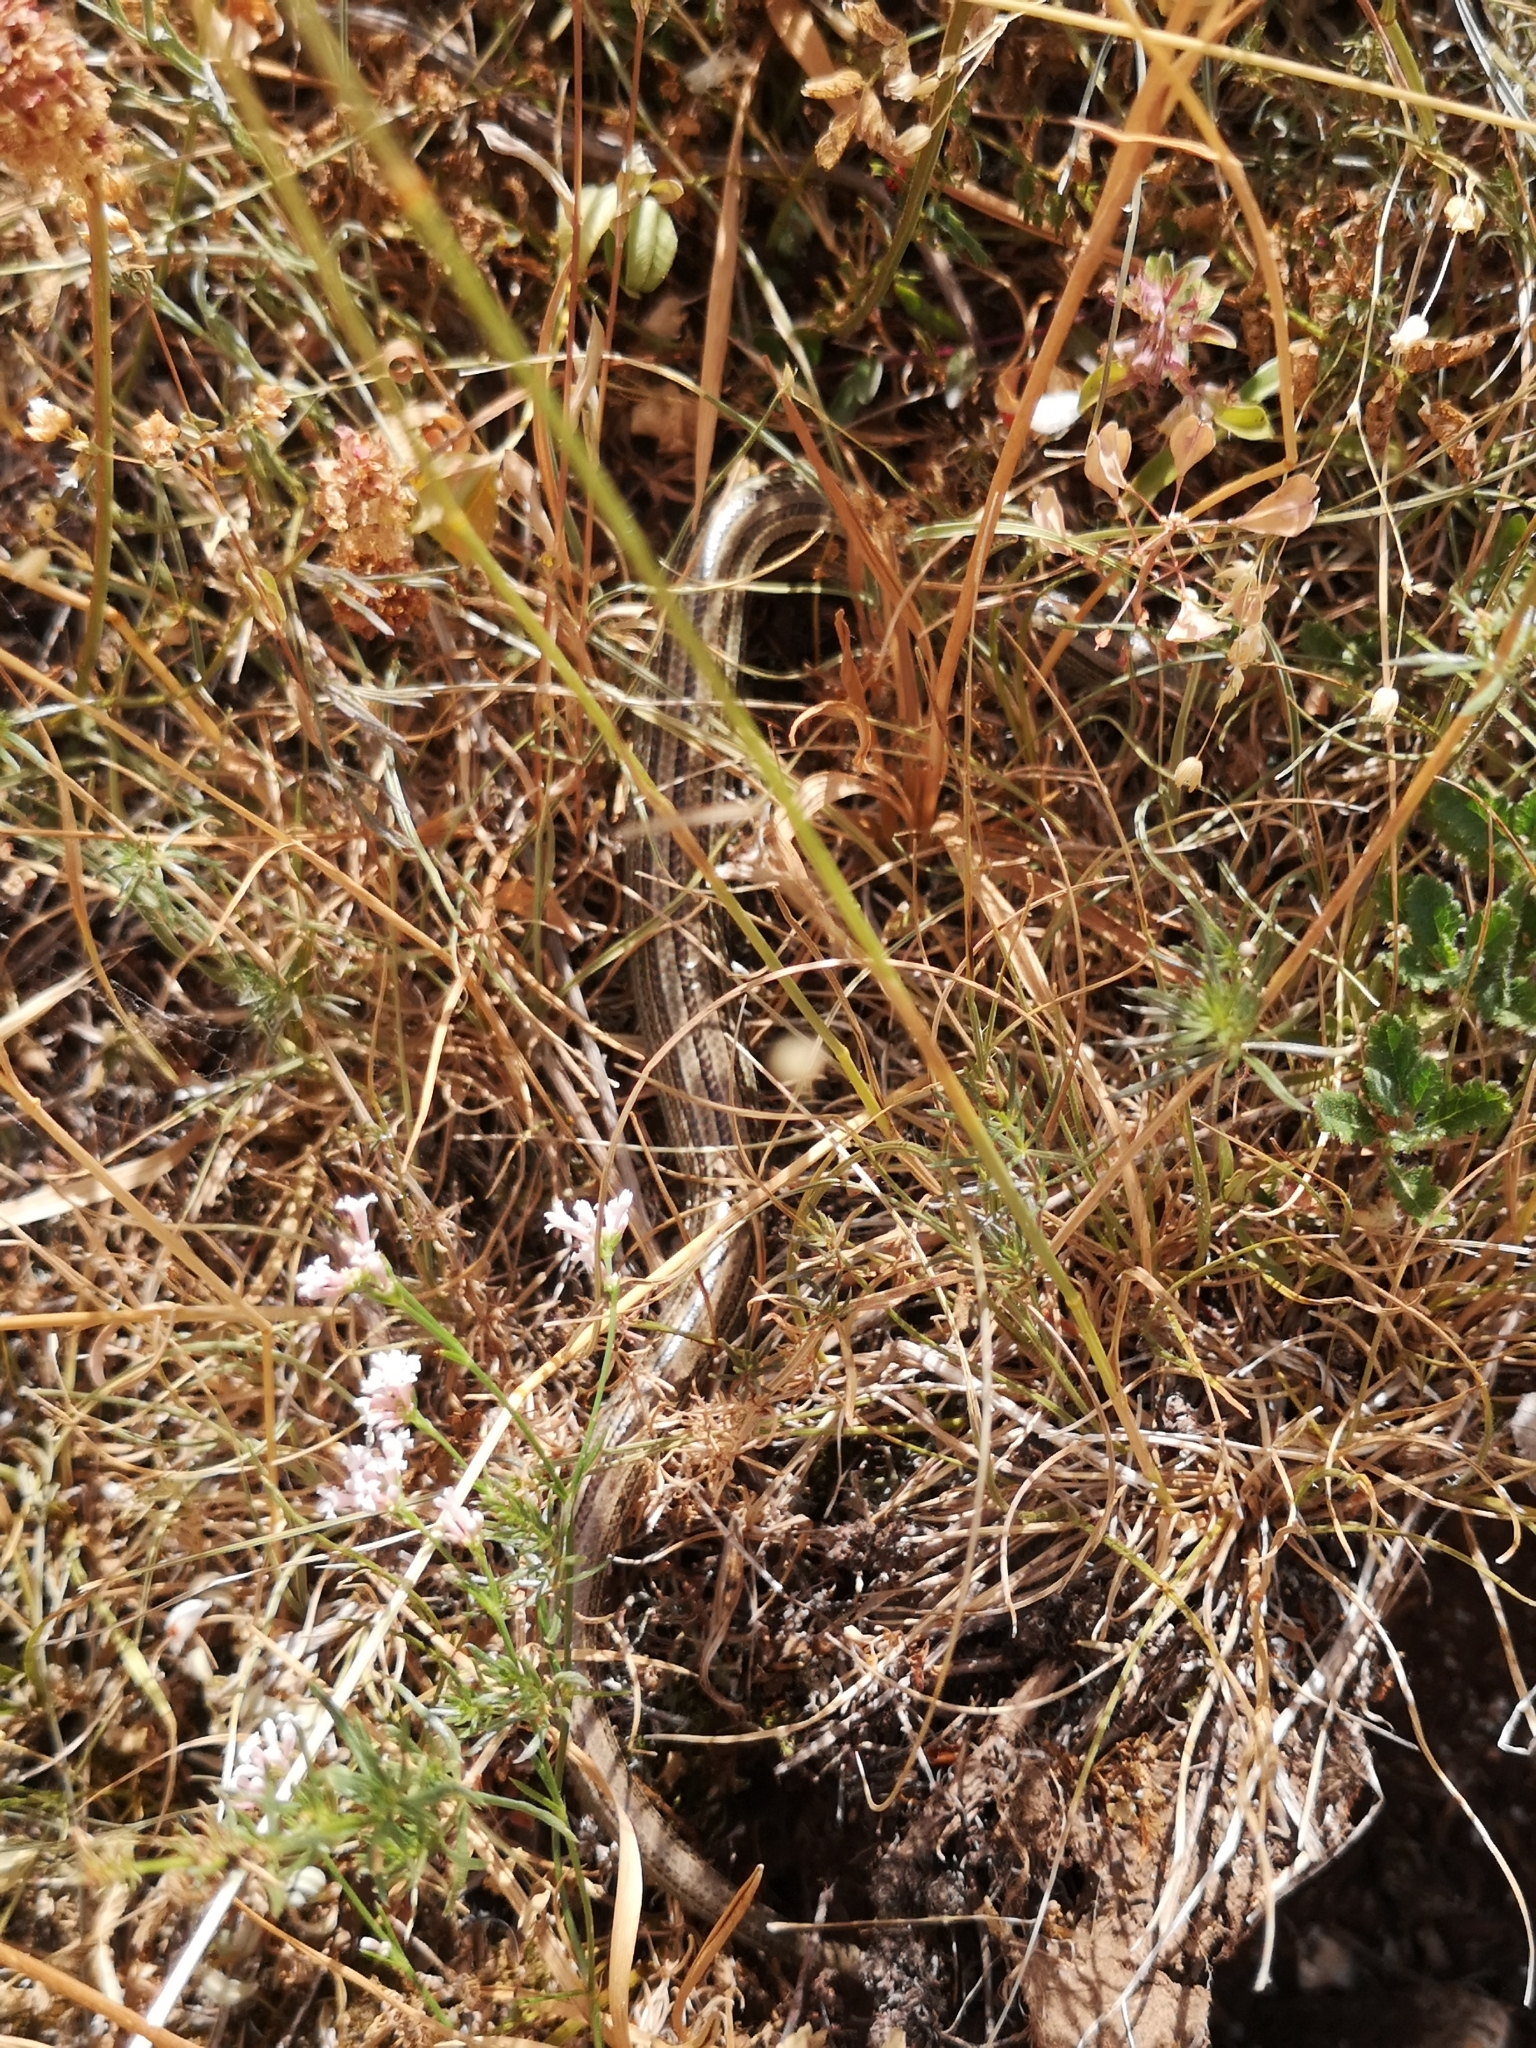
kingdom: Animalia
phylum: Chordata
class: Squamata
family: Scincidae
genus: Chalcides
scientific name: Chalcides chalcides
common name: Italian three-toed skink
